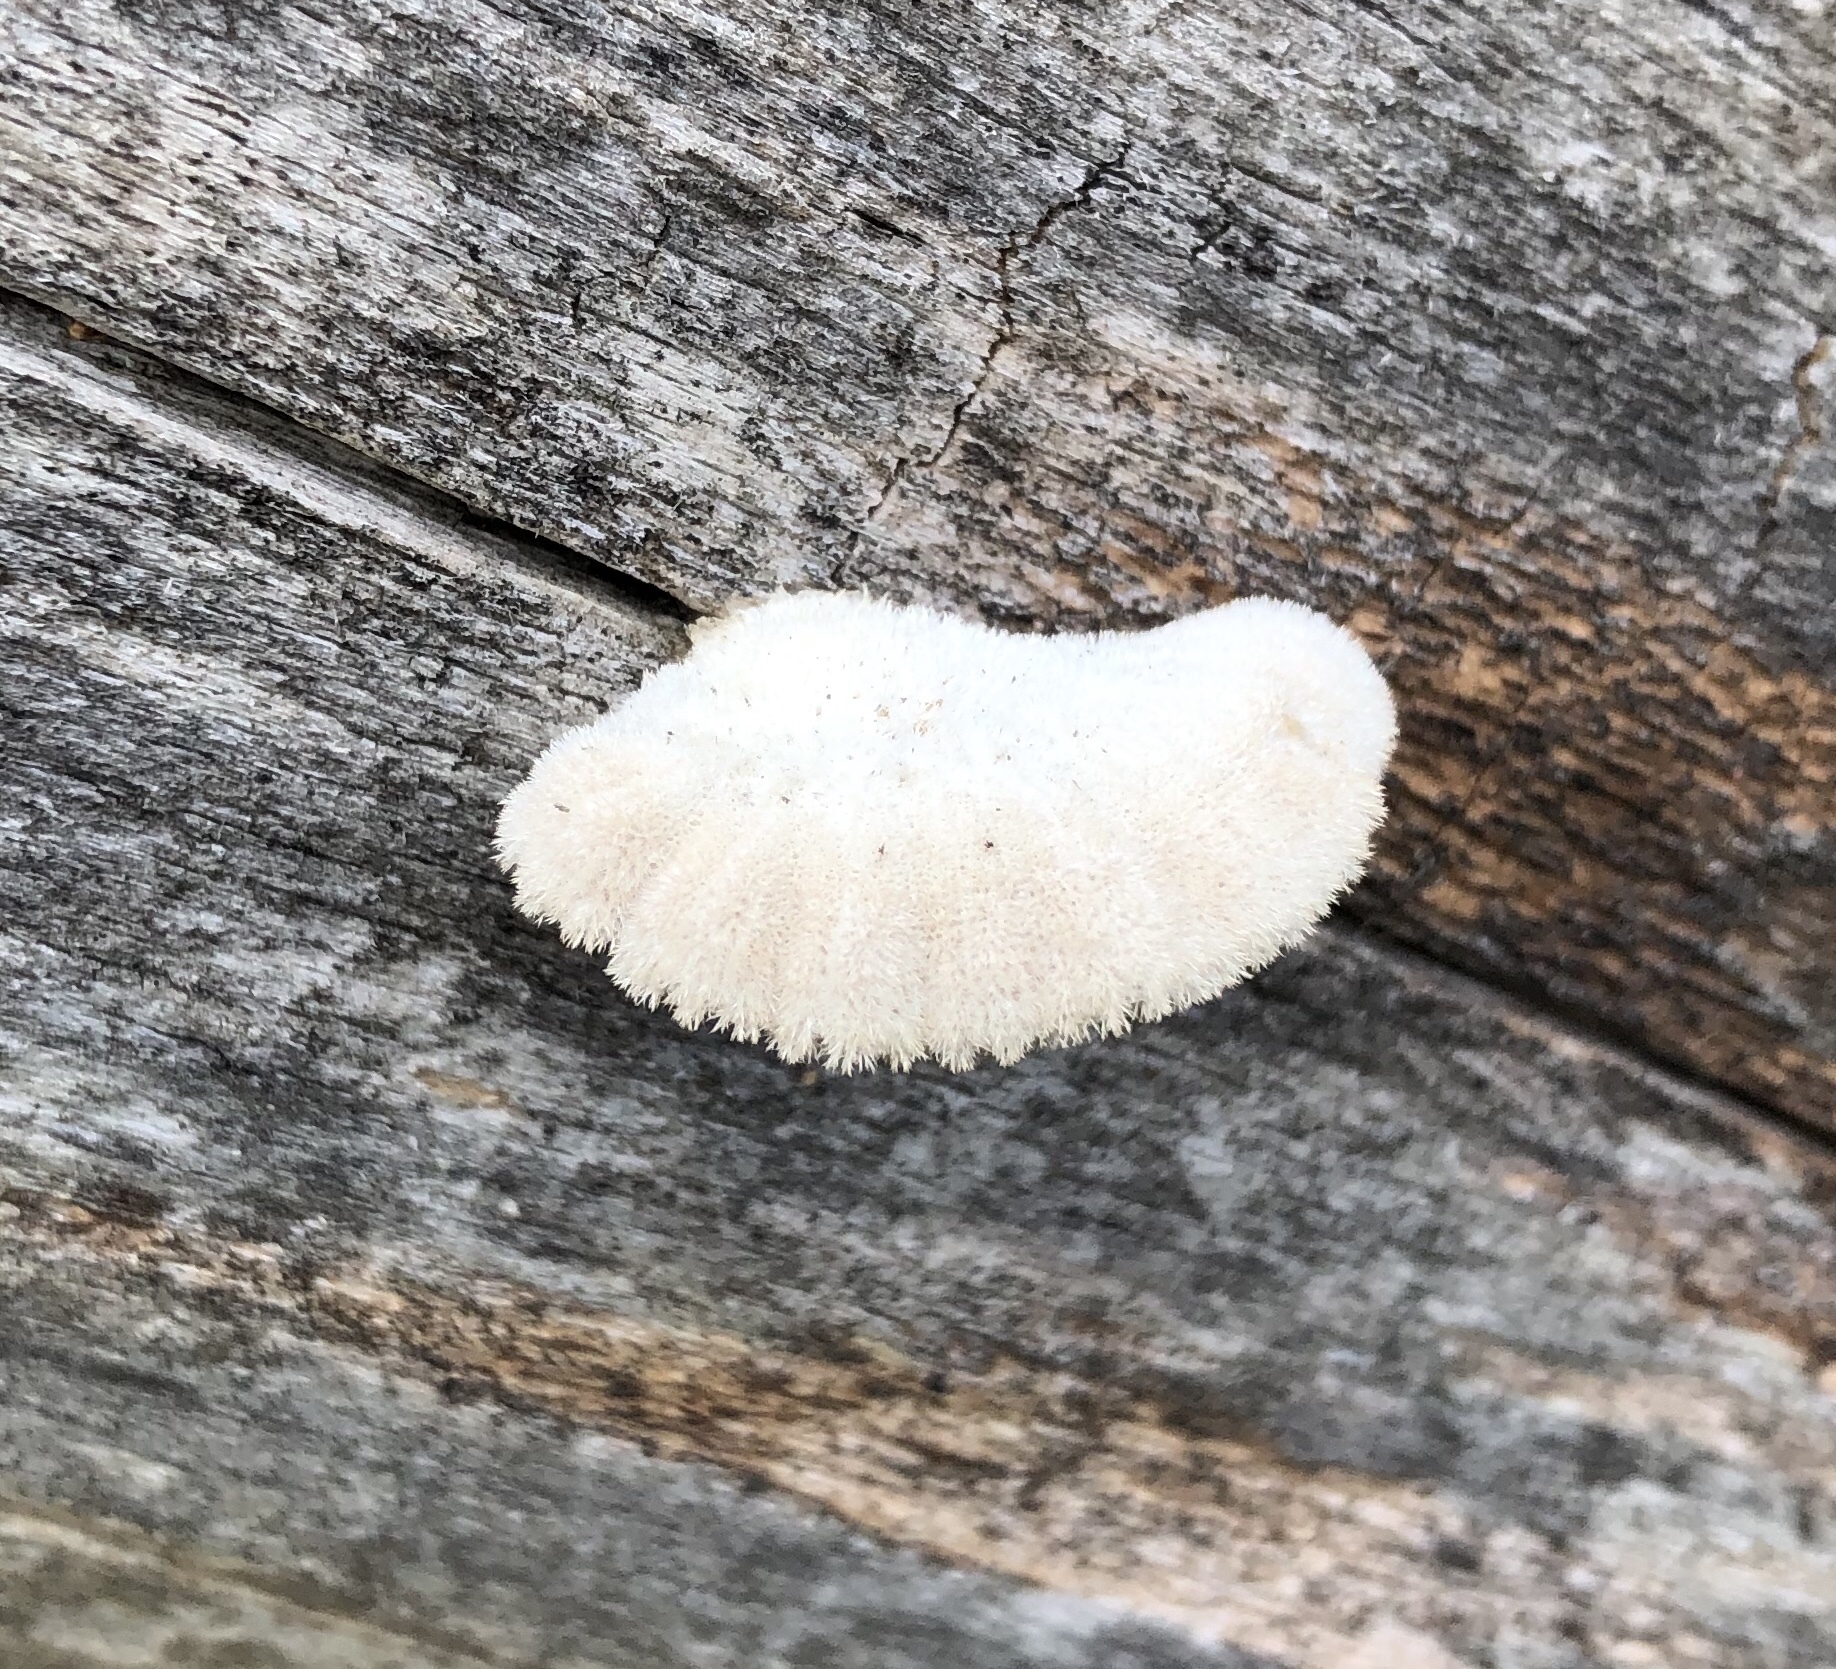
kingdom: Fungi
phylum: Basidiomycota
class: Agaricomycetes
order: Agaricales
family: Schizophyllaceae
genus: Schizophyllum
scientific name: Schizophyllum commune
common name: Common porecrust
